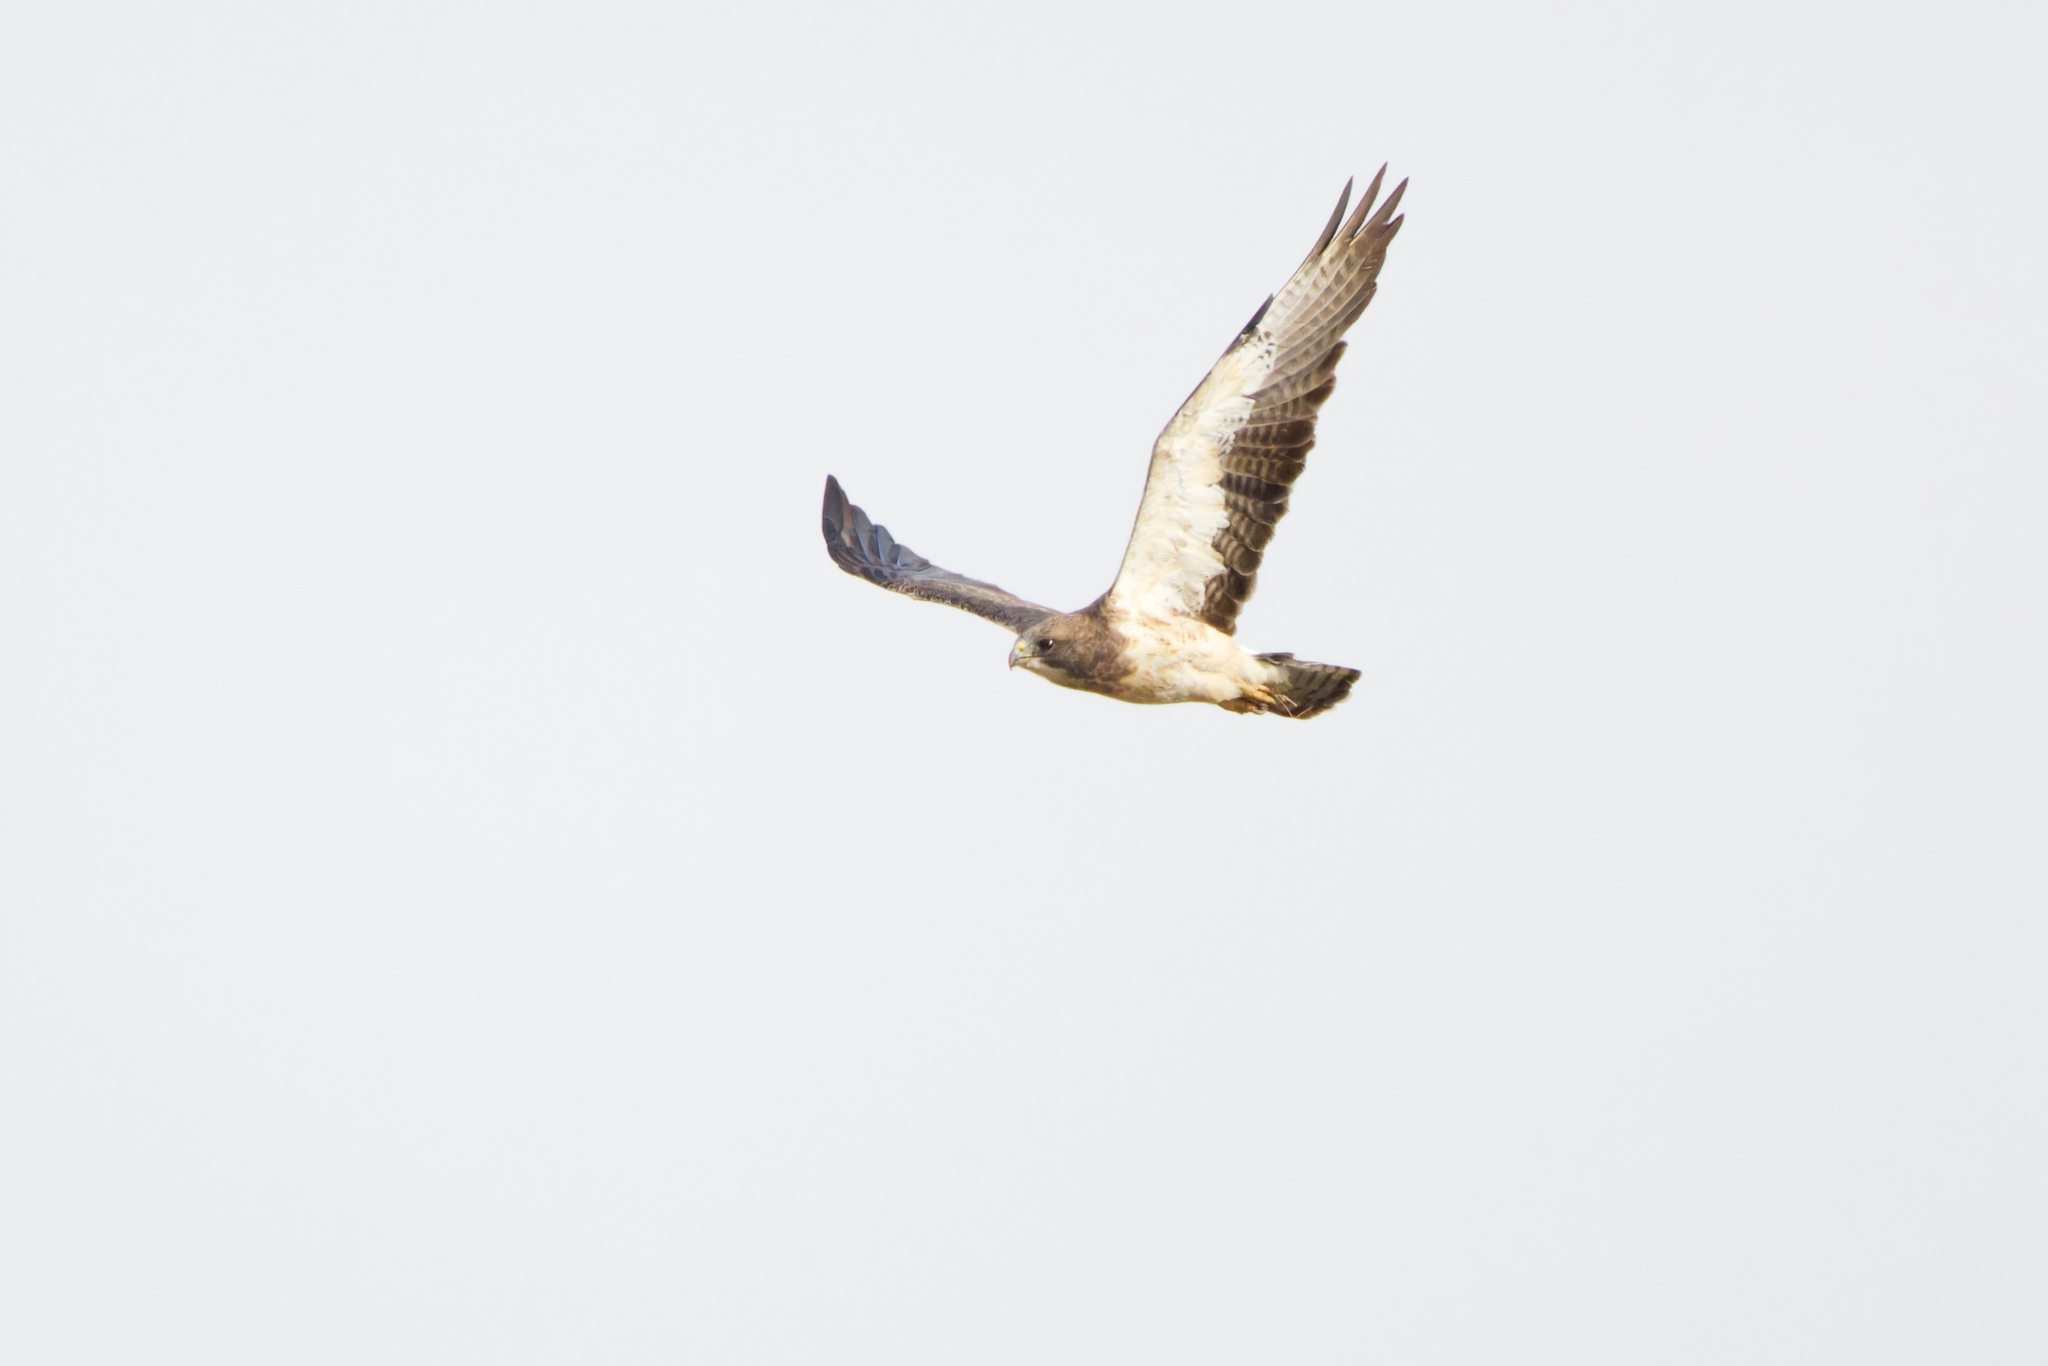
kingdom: Animalia
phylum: Chordata
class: Aves
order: Accipitriformes
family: Accipitridae
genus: Buteo
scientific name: Buteo swainsoni
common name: Swainson's hawk
